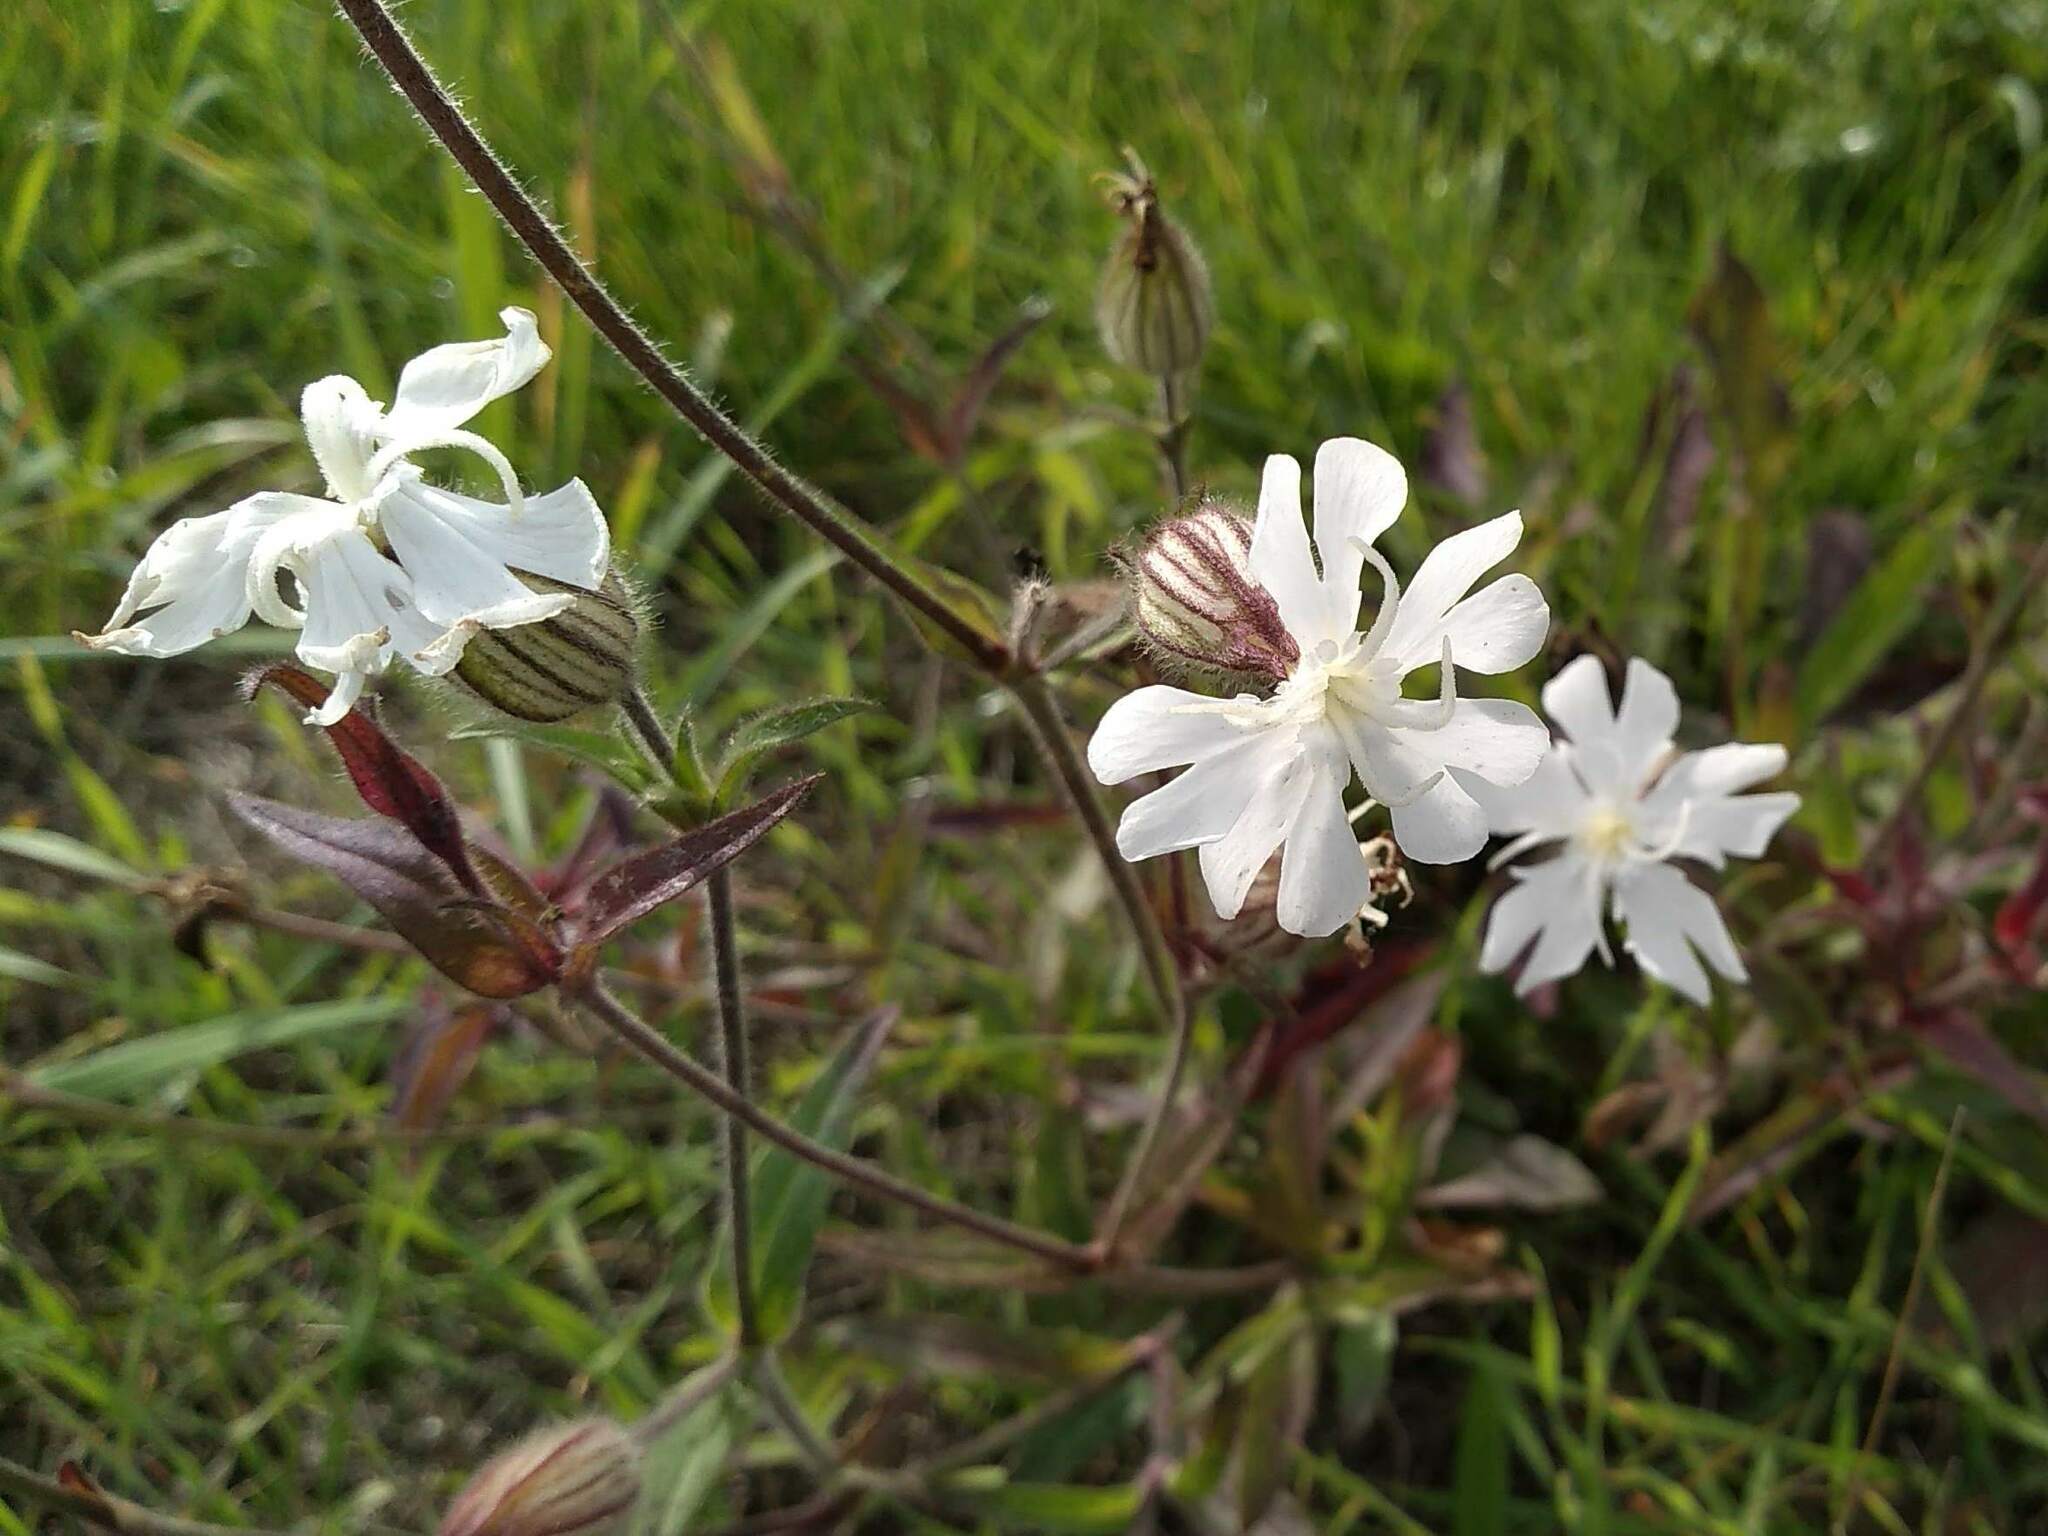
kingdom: Plantae
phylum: Tracheophyta
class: Magnoliopsida
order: Caryophyllales
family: Caryophyllaceae
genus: Silene
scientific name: Silene latifolia
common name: White campion
